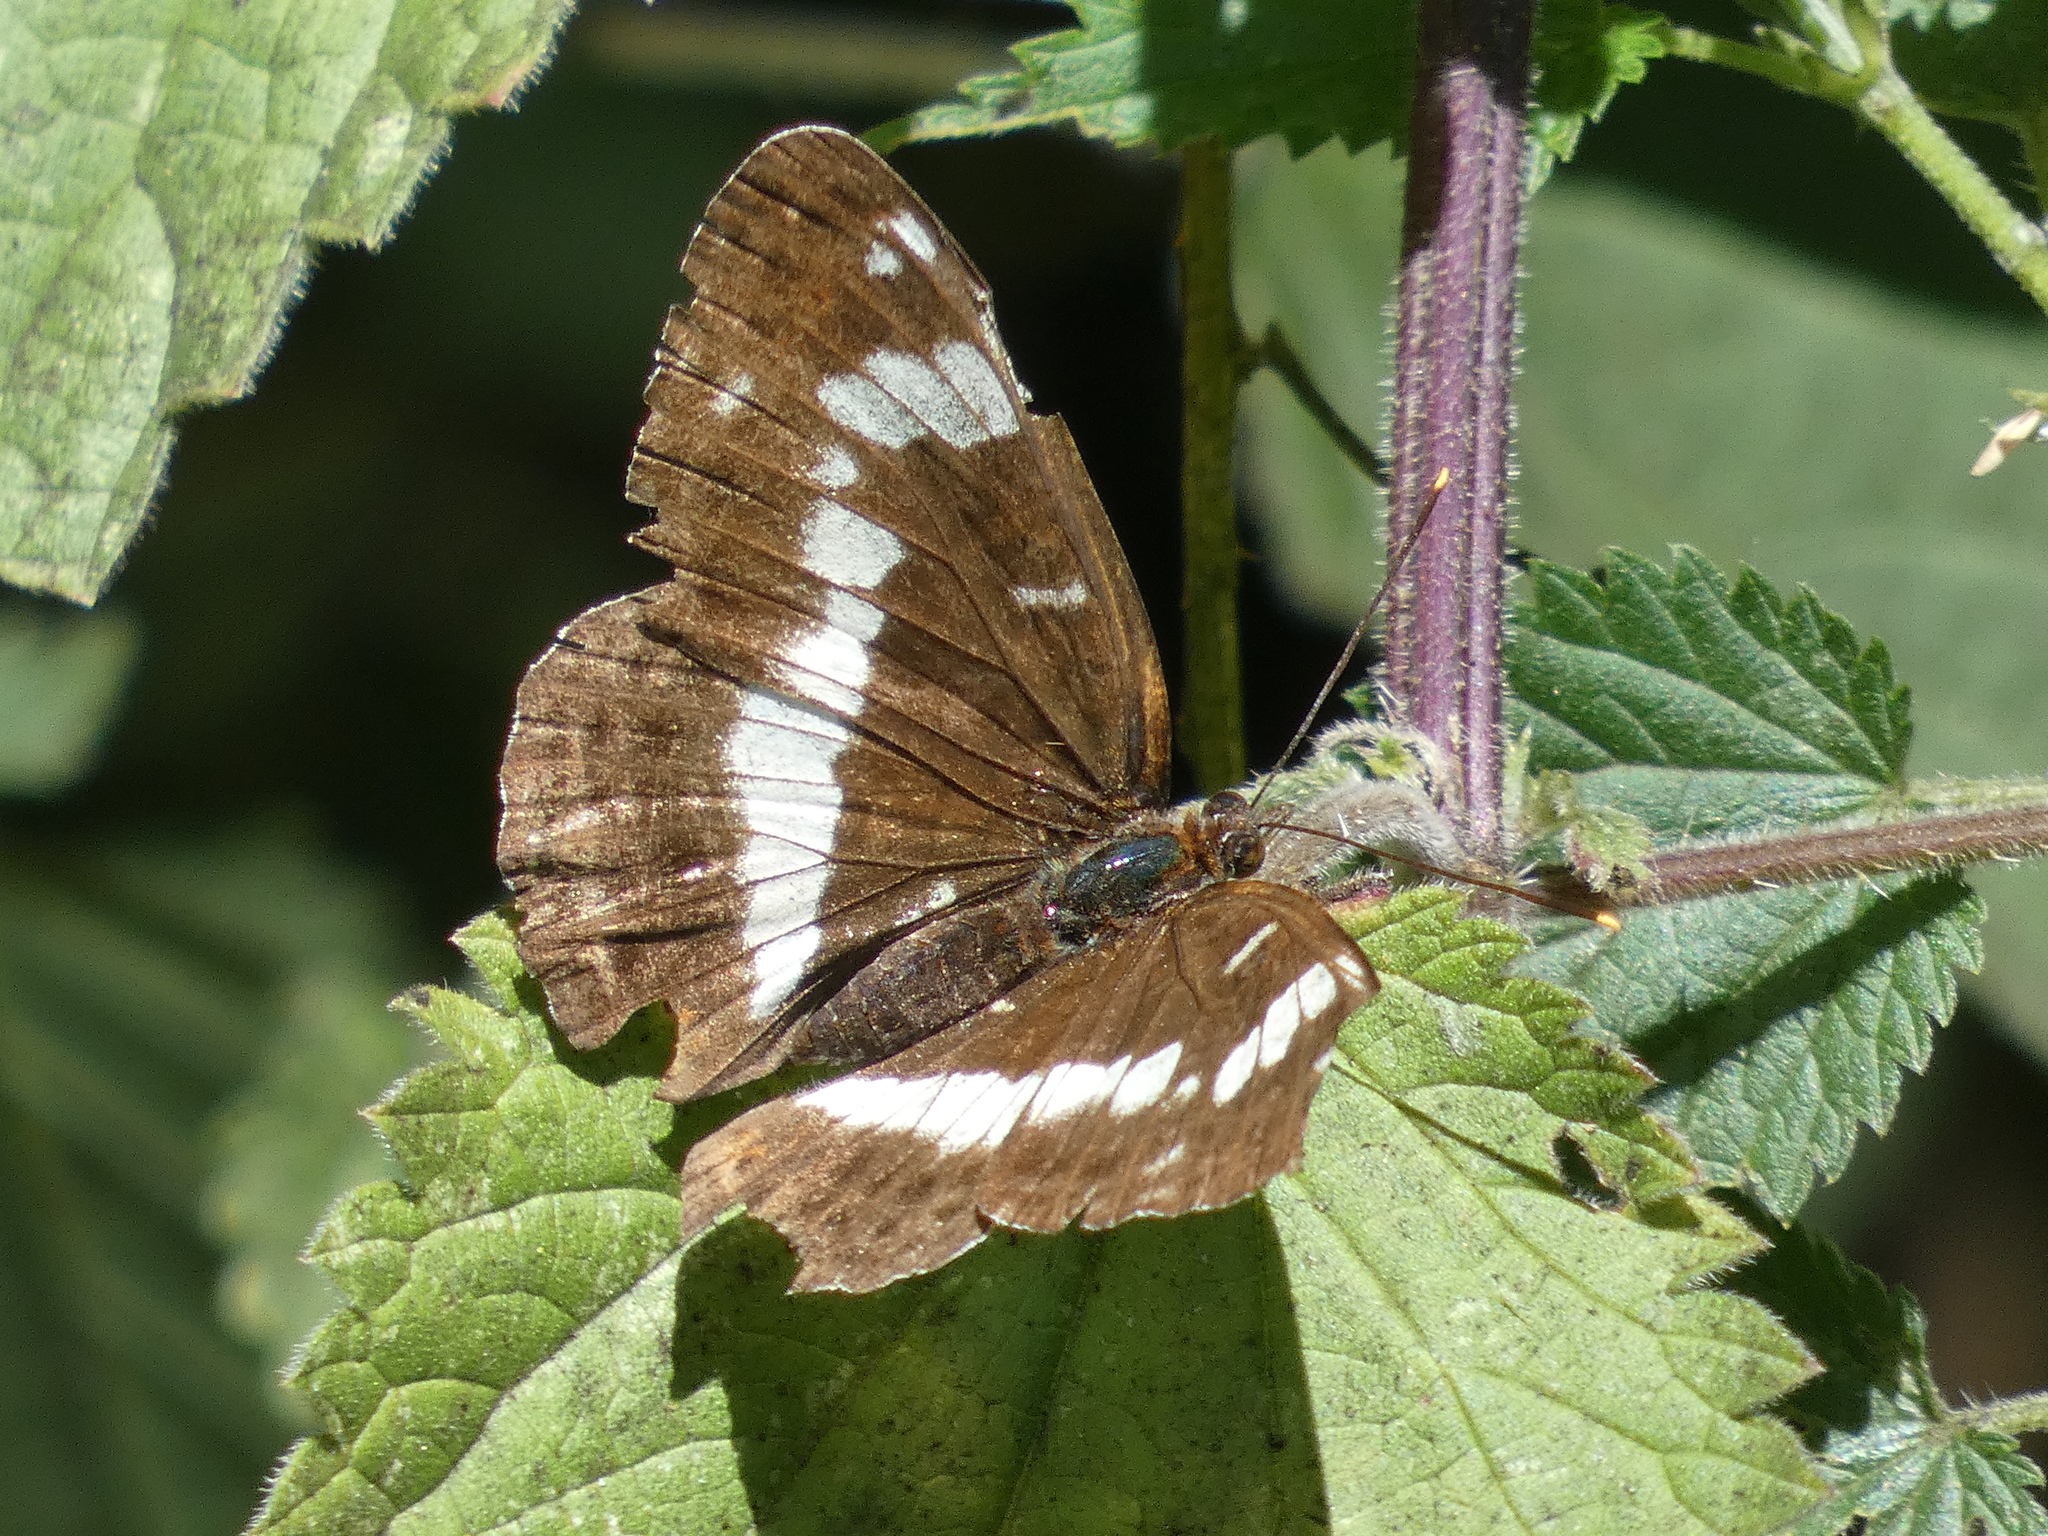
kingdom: Animalia
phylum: Arthropoda
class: Insecta
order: Lepidoptera
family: Nymphalidae
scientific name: Nymphalidae
